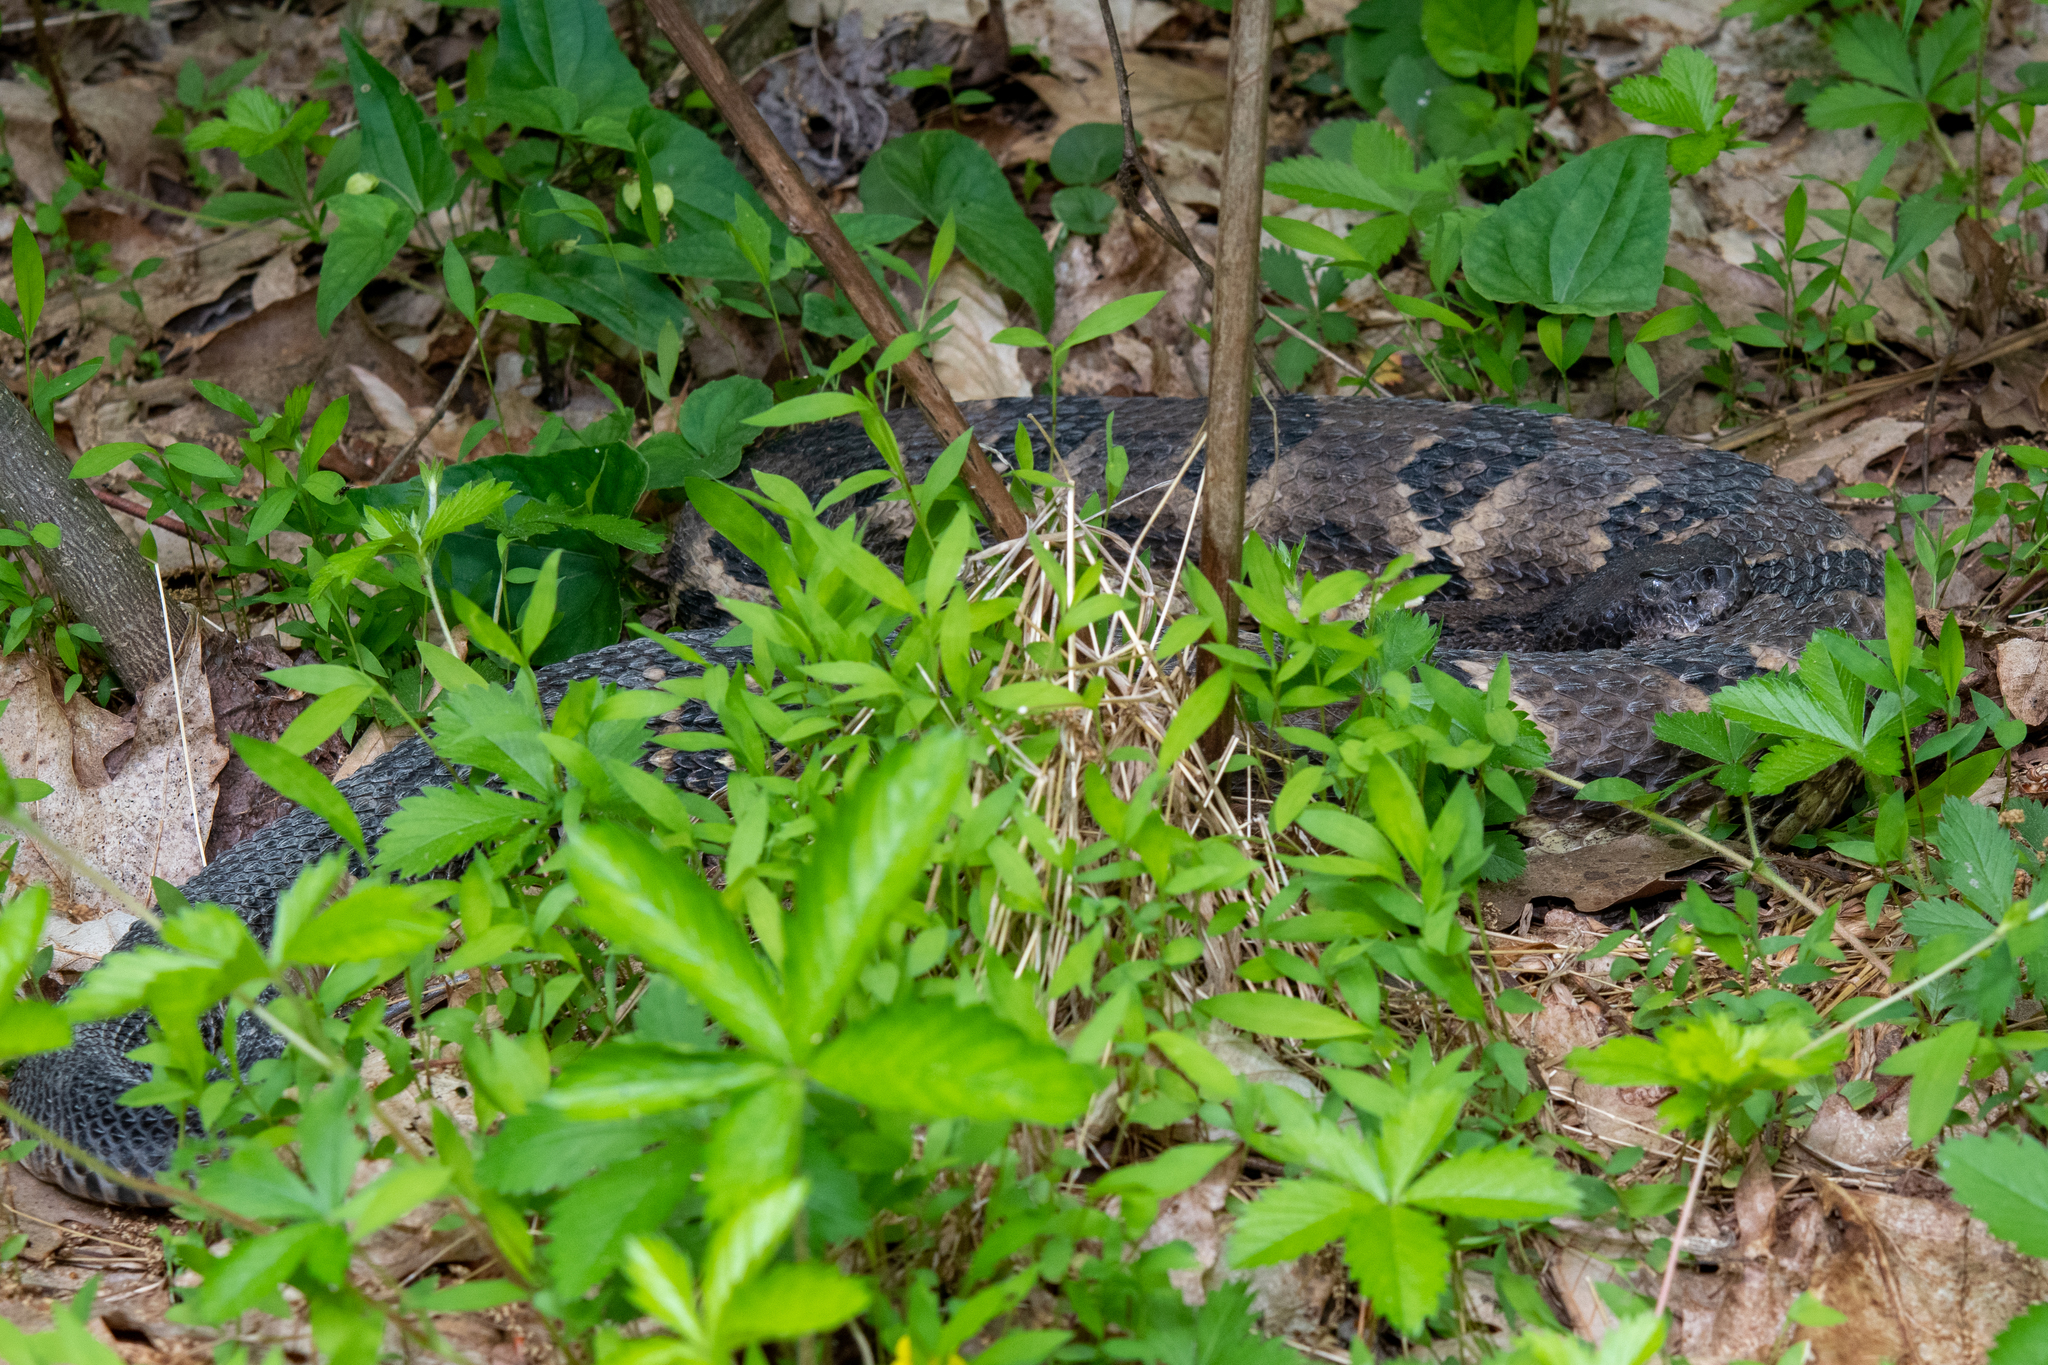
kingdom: Animalia
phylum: Chordata
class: Squamata
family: Viperidae
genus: Crotalus
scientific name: Crotalus horridus
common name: Timber rattlesnake
